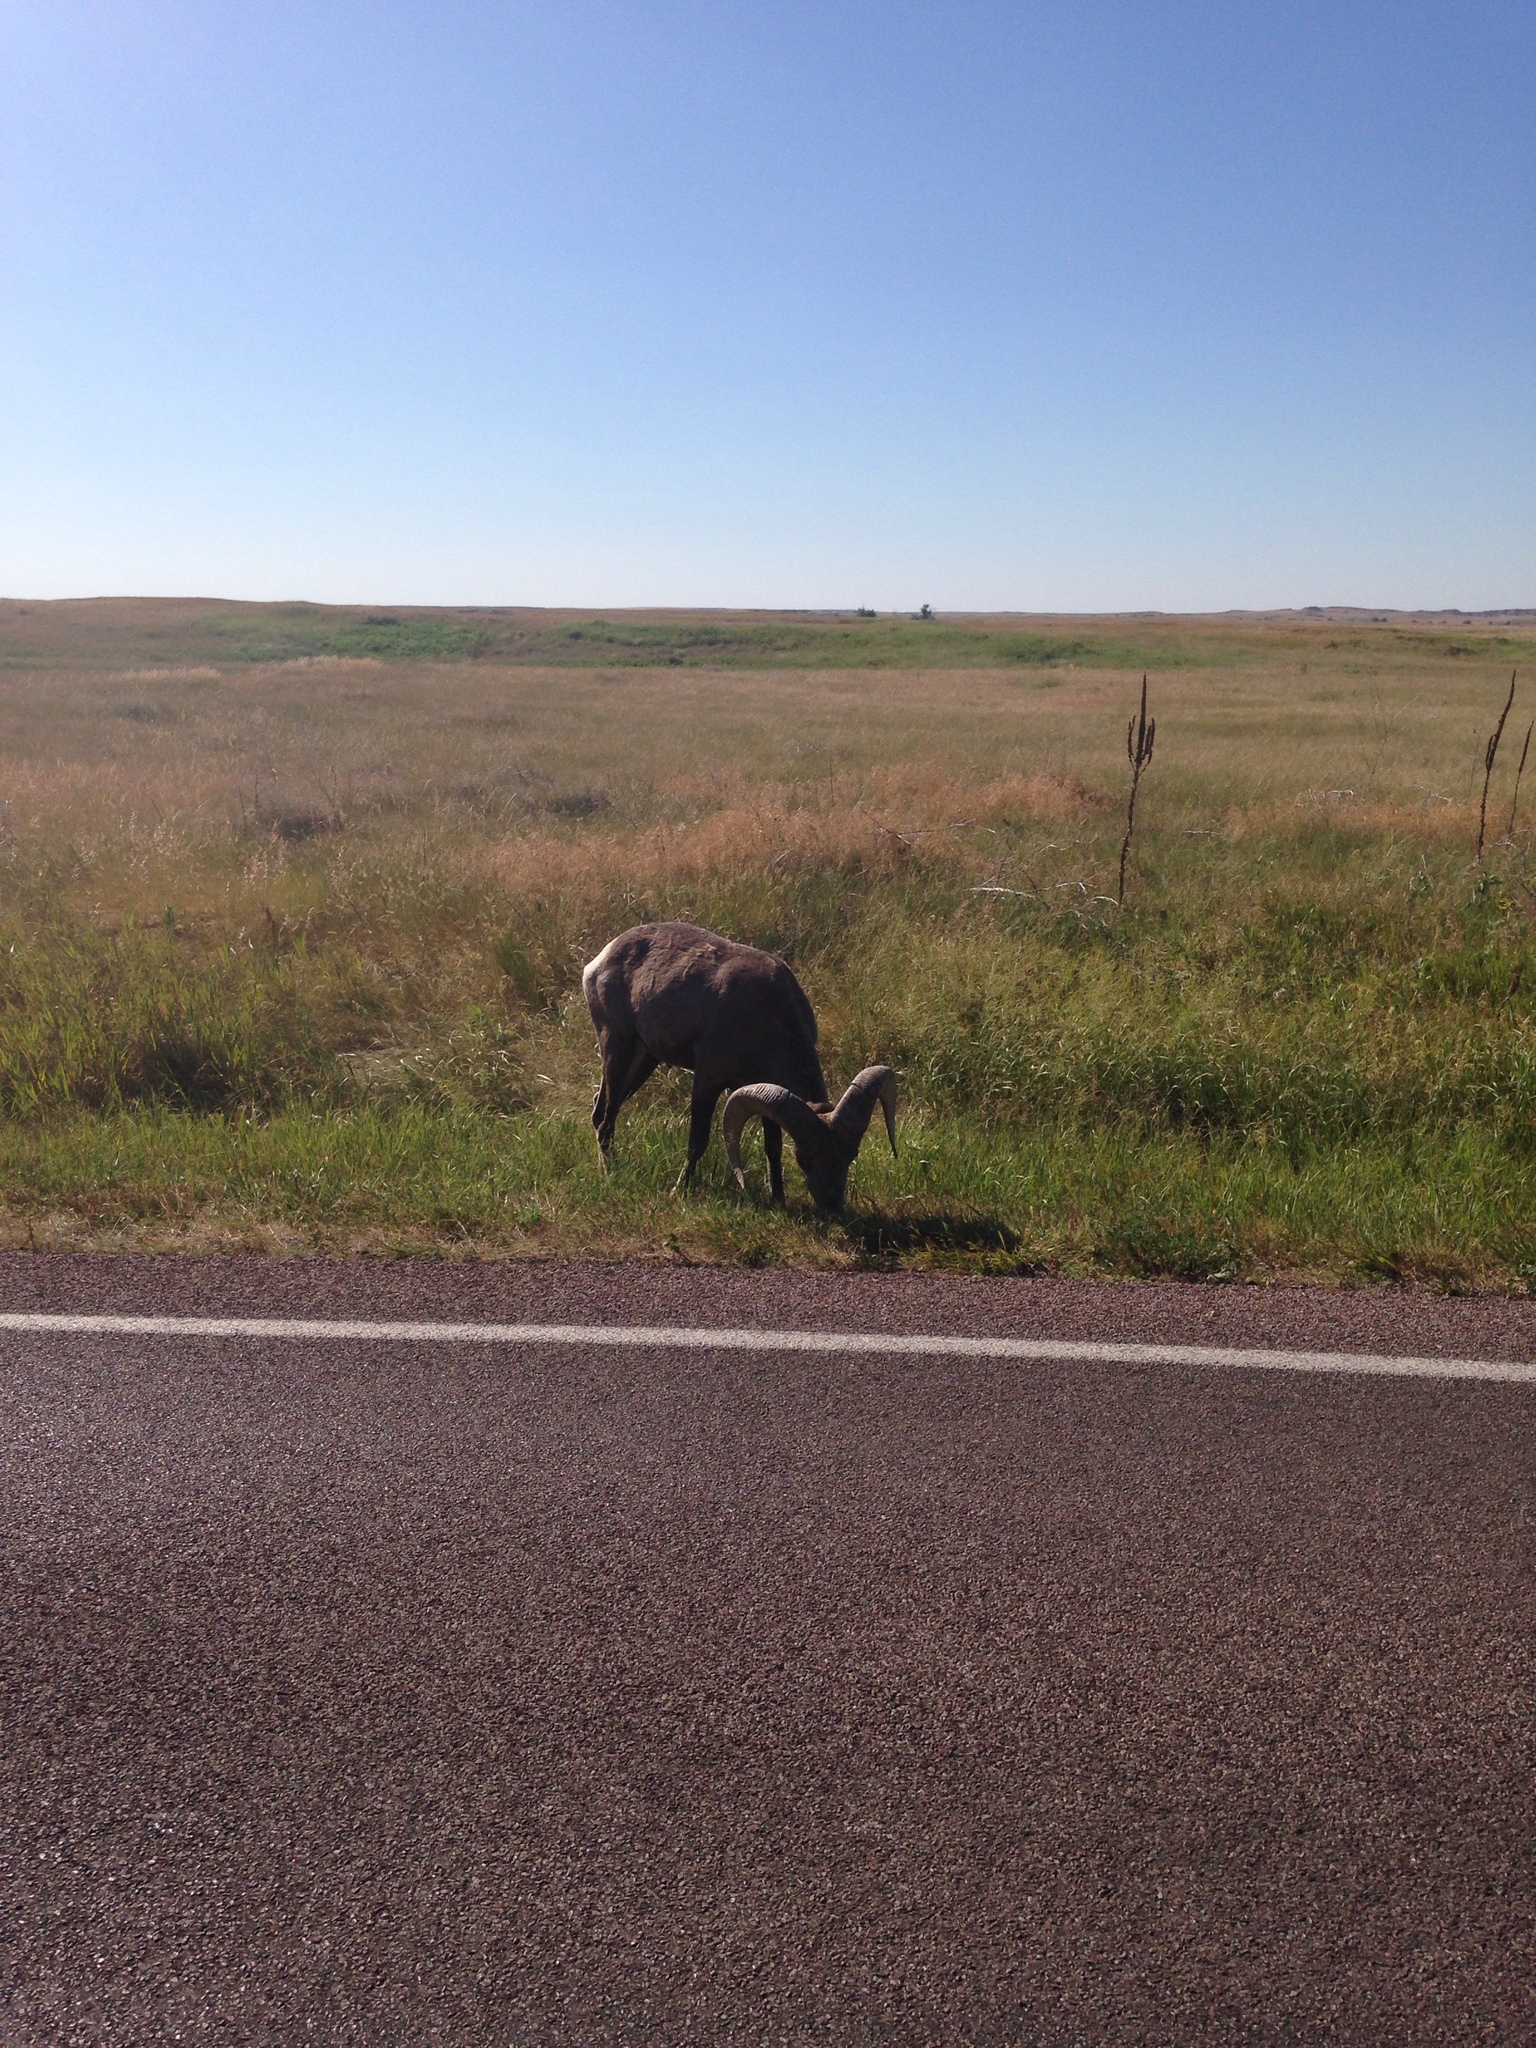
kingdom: Animalia
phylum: Chordata
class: Mammalia
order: Artiodactyla
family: Bovidae
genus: Ovis
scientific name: Ovis canadensis
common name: Bighorn sheep
